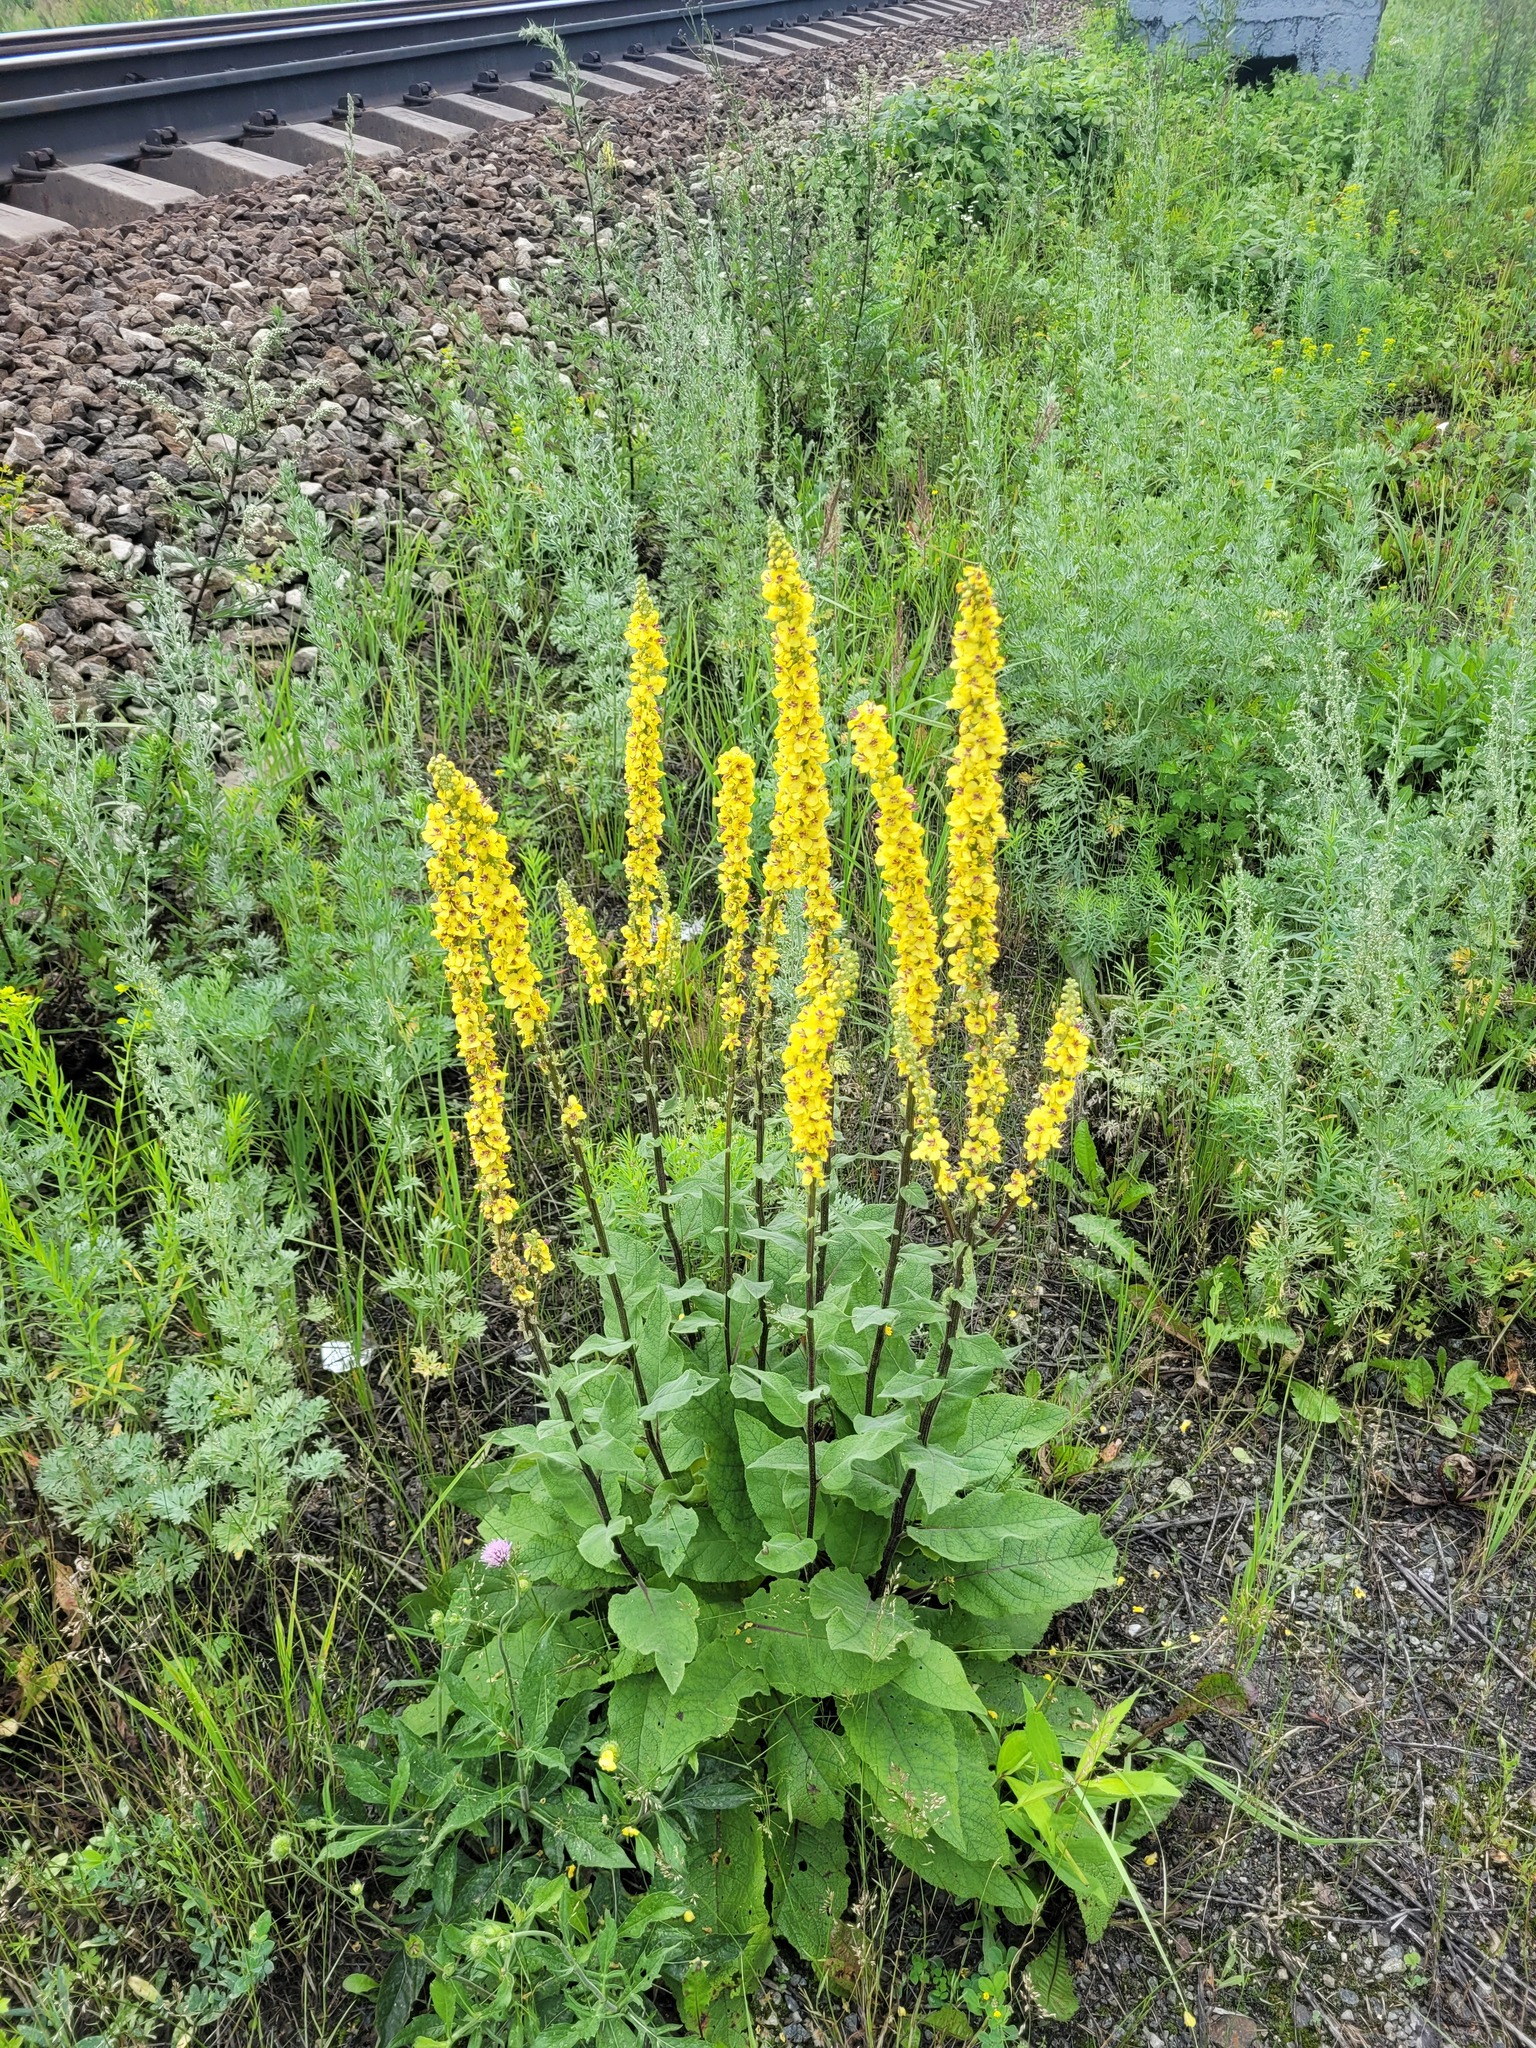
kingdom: Plantae
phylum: Tracheophyta
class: Magnoliopsida
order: Lamiales
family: Scrophulariaceae
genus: Verbascum
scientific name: Verbascum nigrum
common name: Dark mullein
